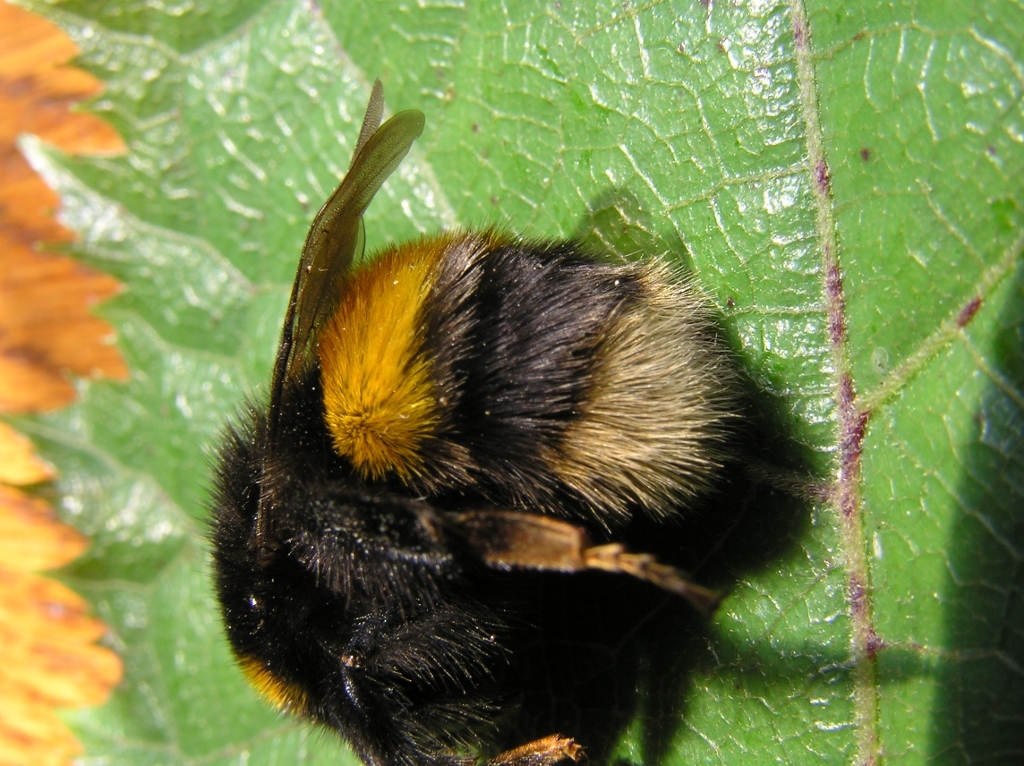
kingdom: Animalia
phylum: Arthropoda
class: Insecta
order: Hymenoptera
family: Apidae
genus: Bombus
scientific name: Bombus terrestris
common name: Buff-tailed bumblebee
